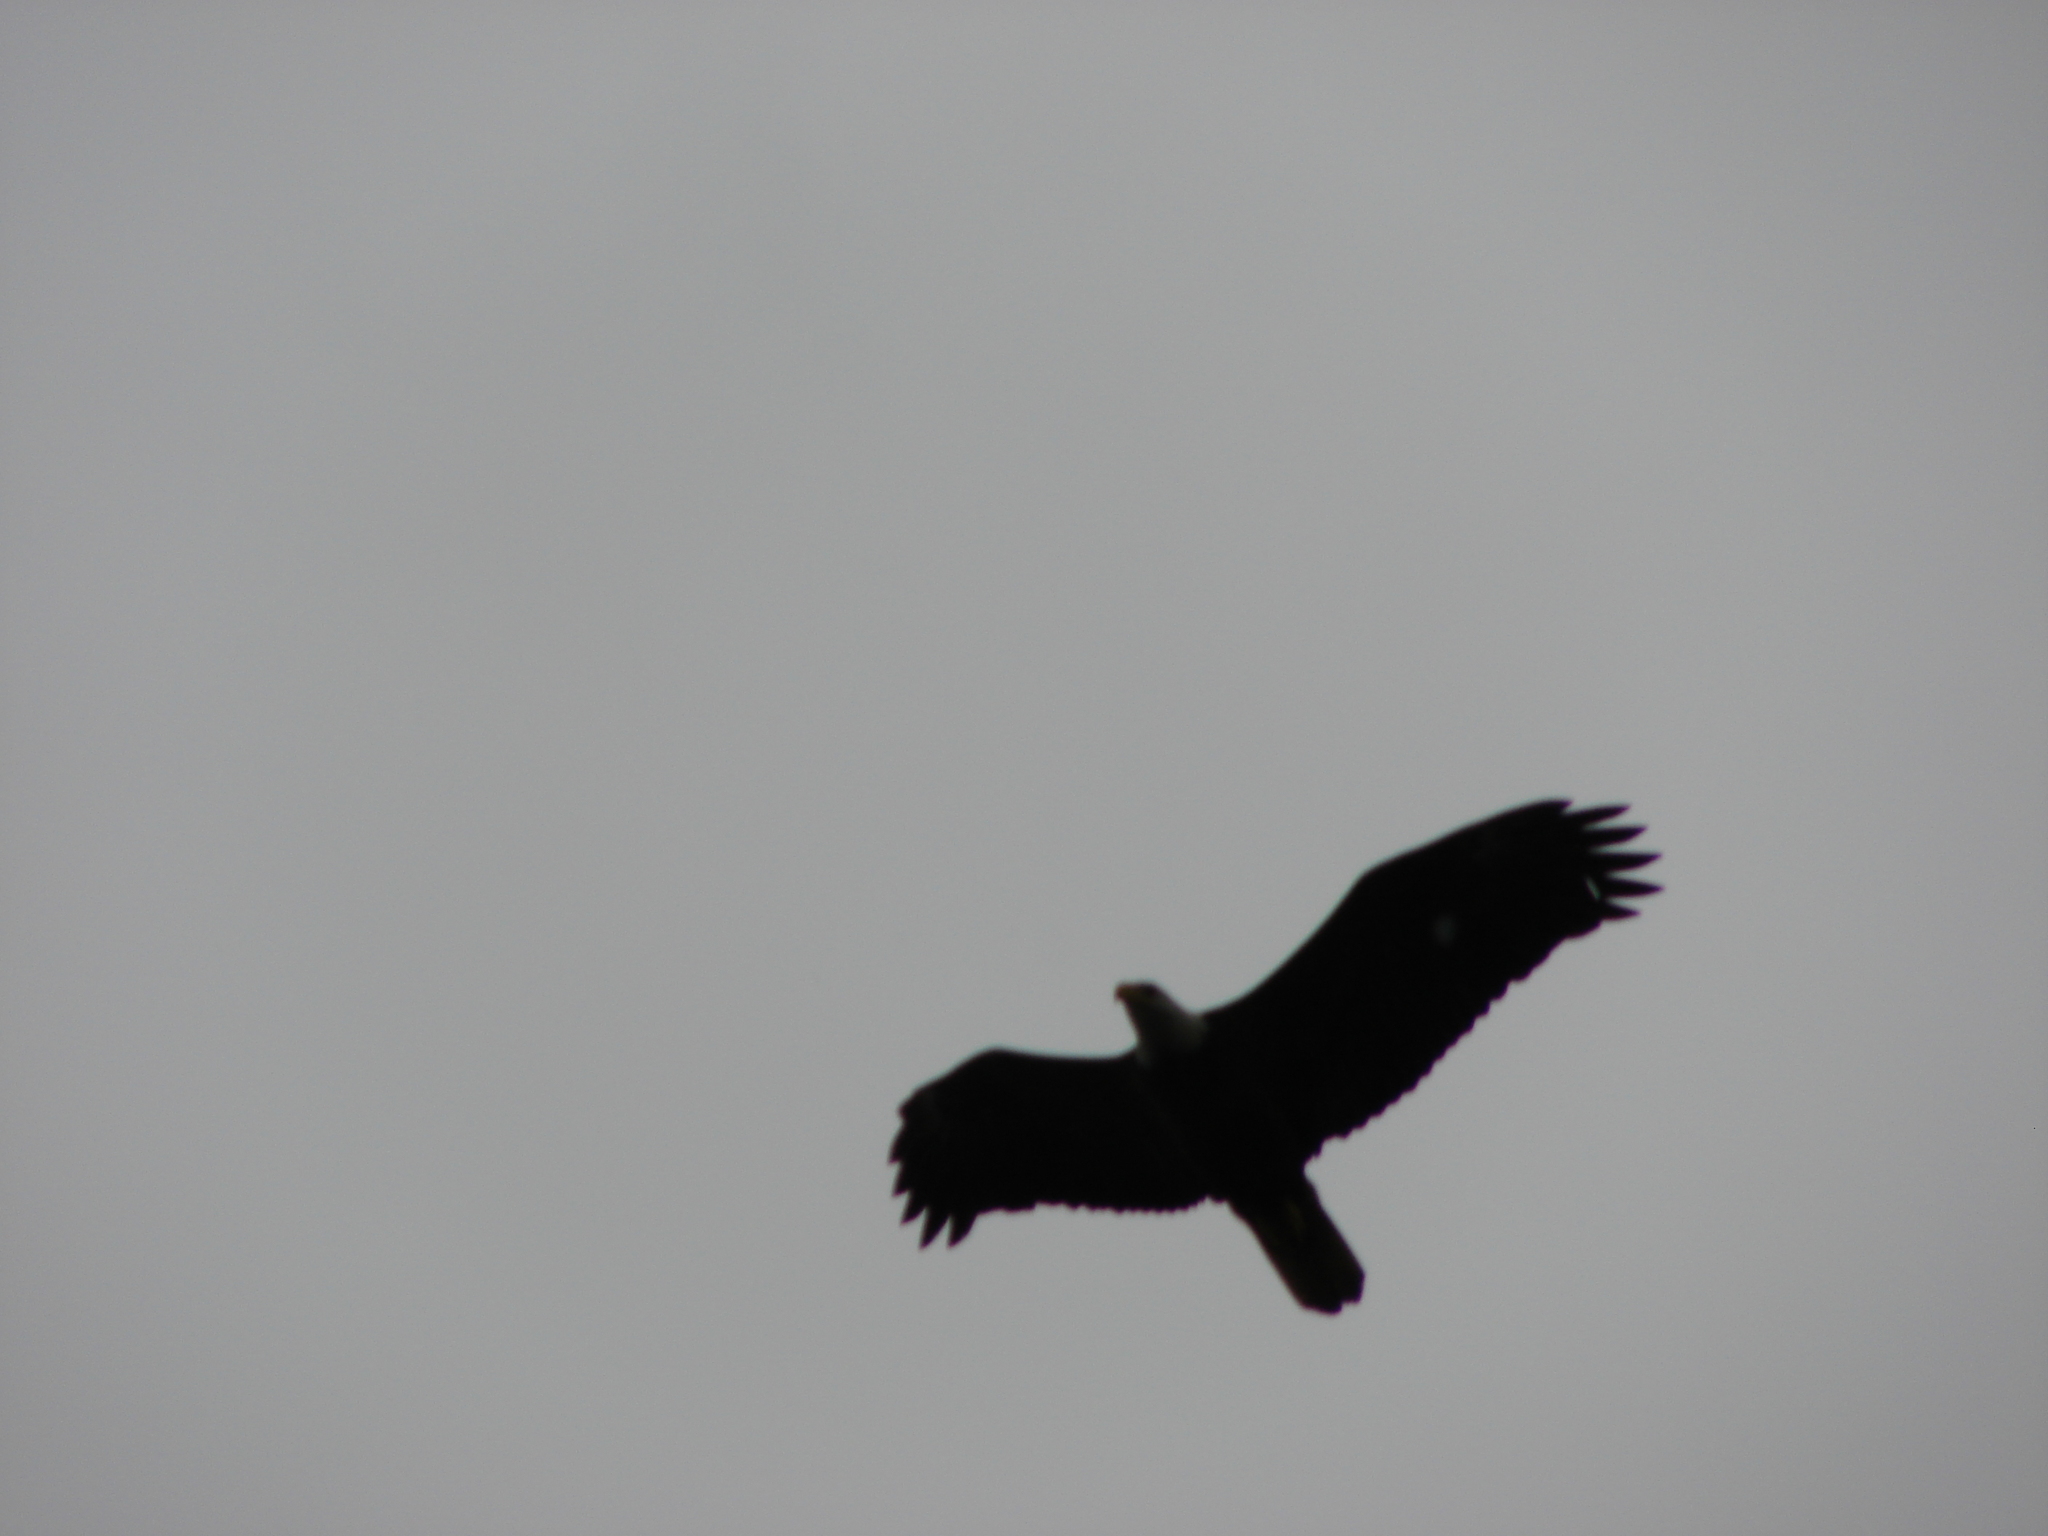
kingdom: Animalia
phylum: Chordata
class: Aves
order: Accipitriformes
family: Accipitridae
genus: Haliaeetus
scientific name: Haliaeetus leucocephalus
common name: Bald eagle
